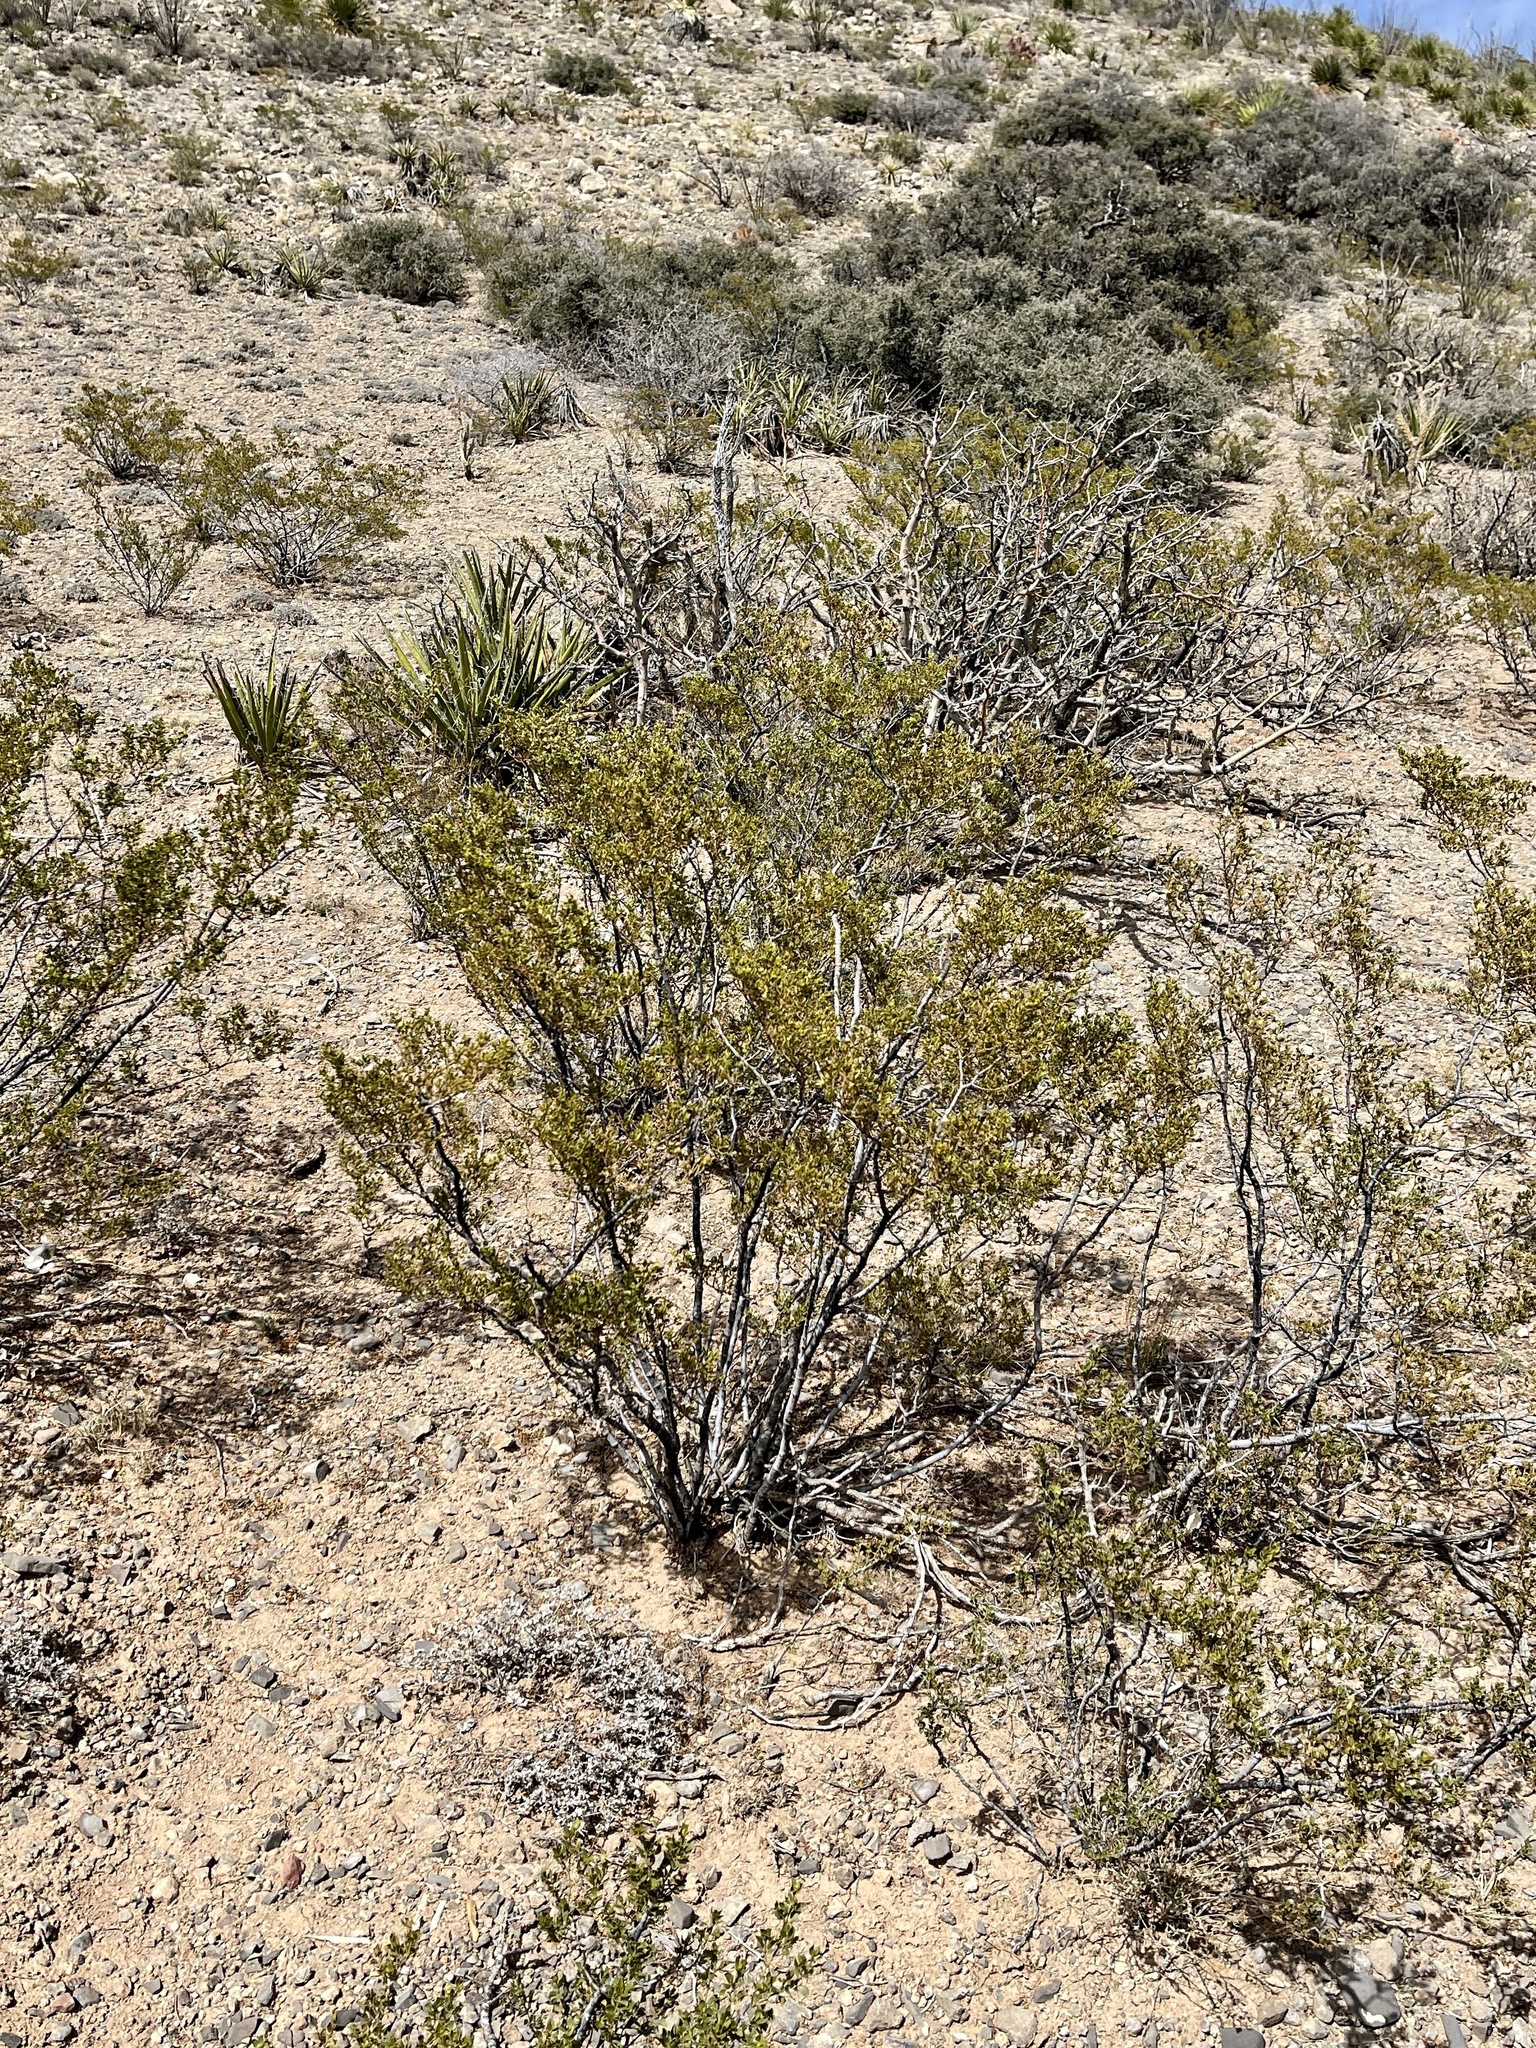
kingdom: Plantae
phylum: Tracheophyta
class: Magnoliopsida
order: Zygophyllales
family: Zygophyllaceae
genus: Larrea
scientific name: Larrea tridentata
